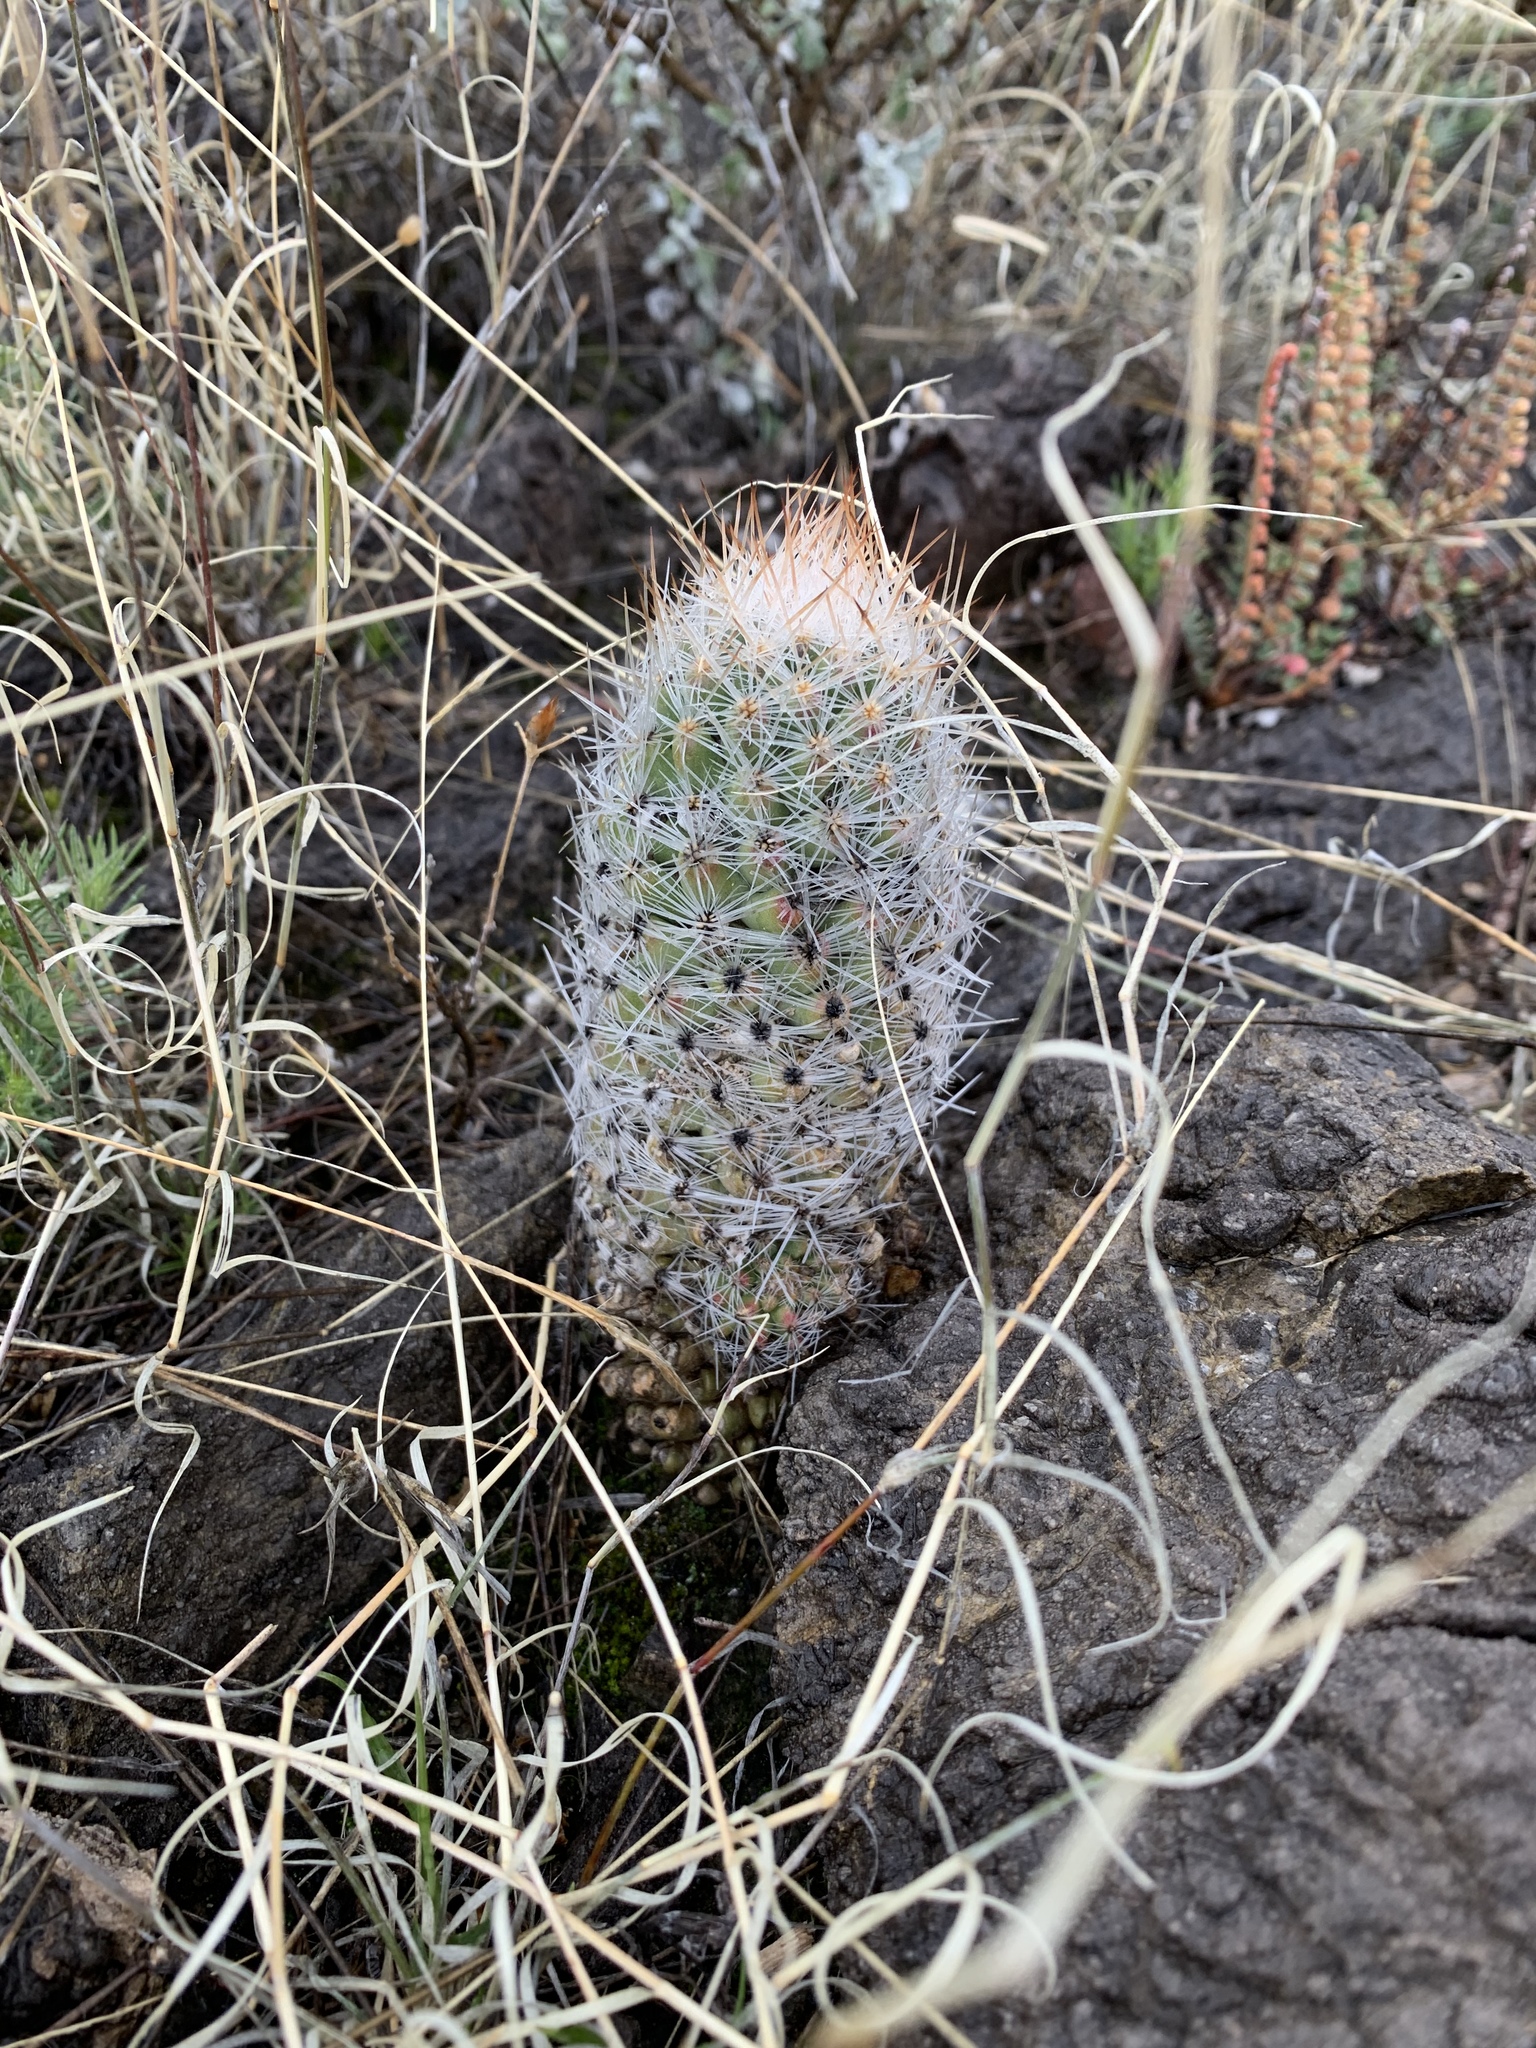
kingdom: Plantae
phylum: Tracheophyta
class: Magnoliopsida
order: Caryophyllales
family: Cactaceae
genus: Pelecyphora
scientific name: Pelecyphora tuberculosa
